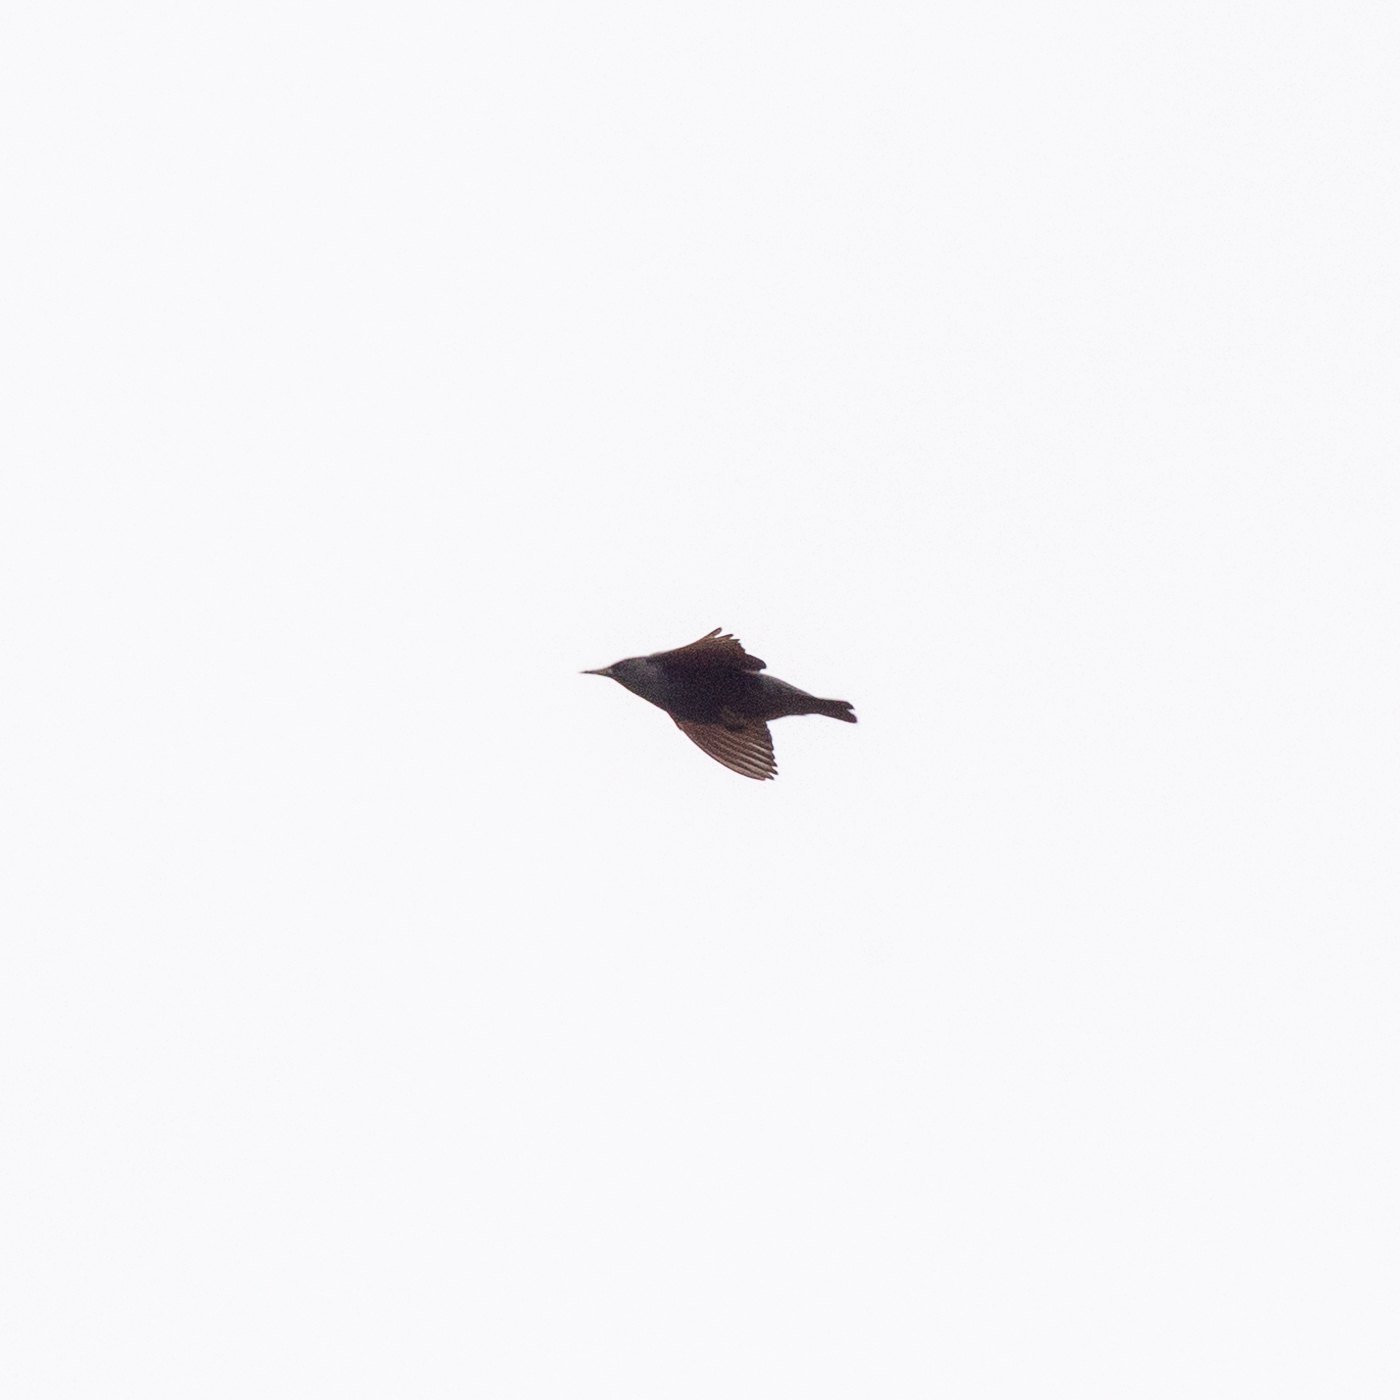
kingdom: Animalia
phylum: Chordata
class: Aves
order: Passeriformes
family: Sturnidae
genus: Sturnus
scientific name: Sturnus unicolor
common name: Spotless starling
